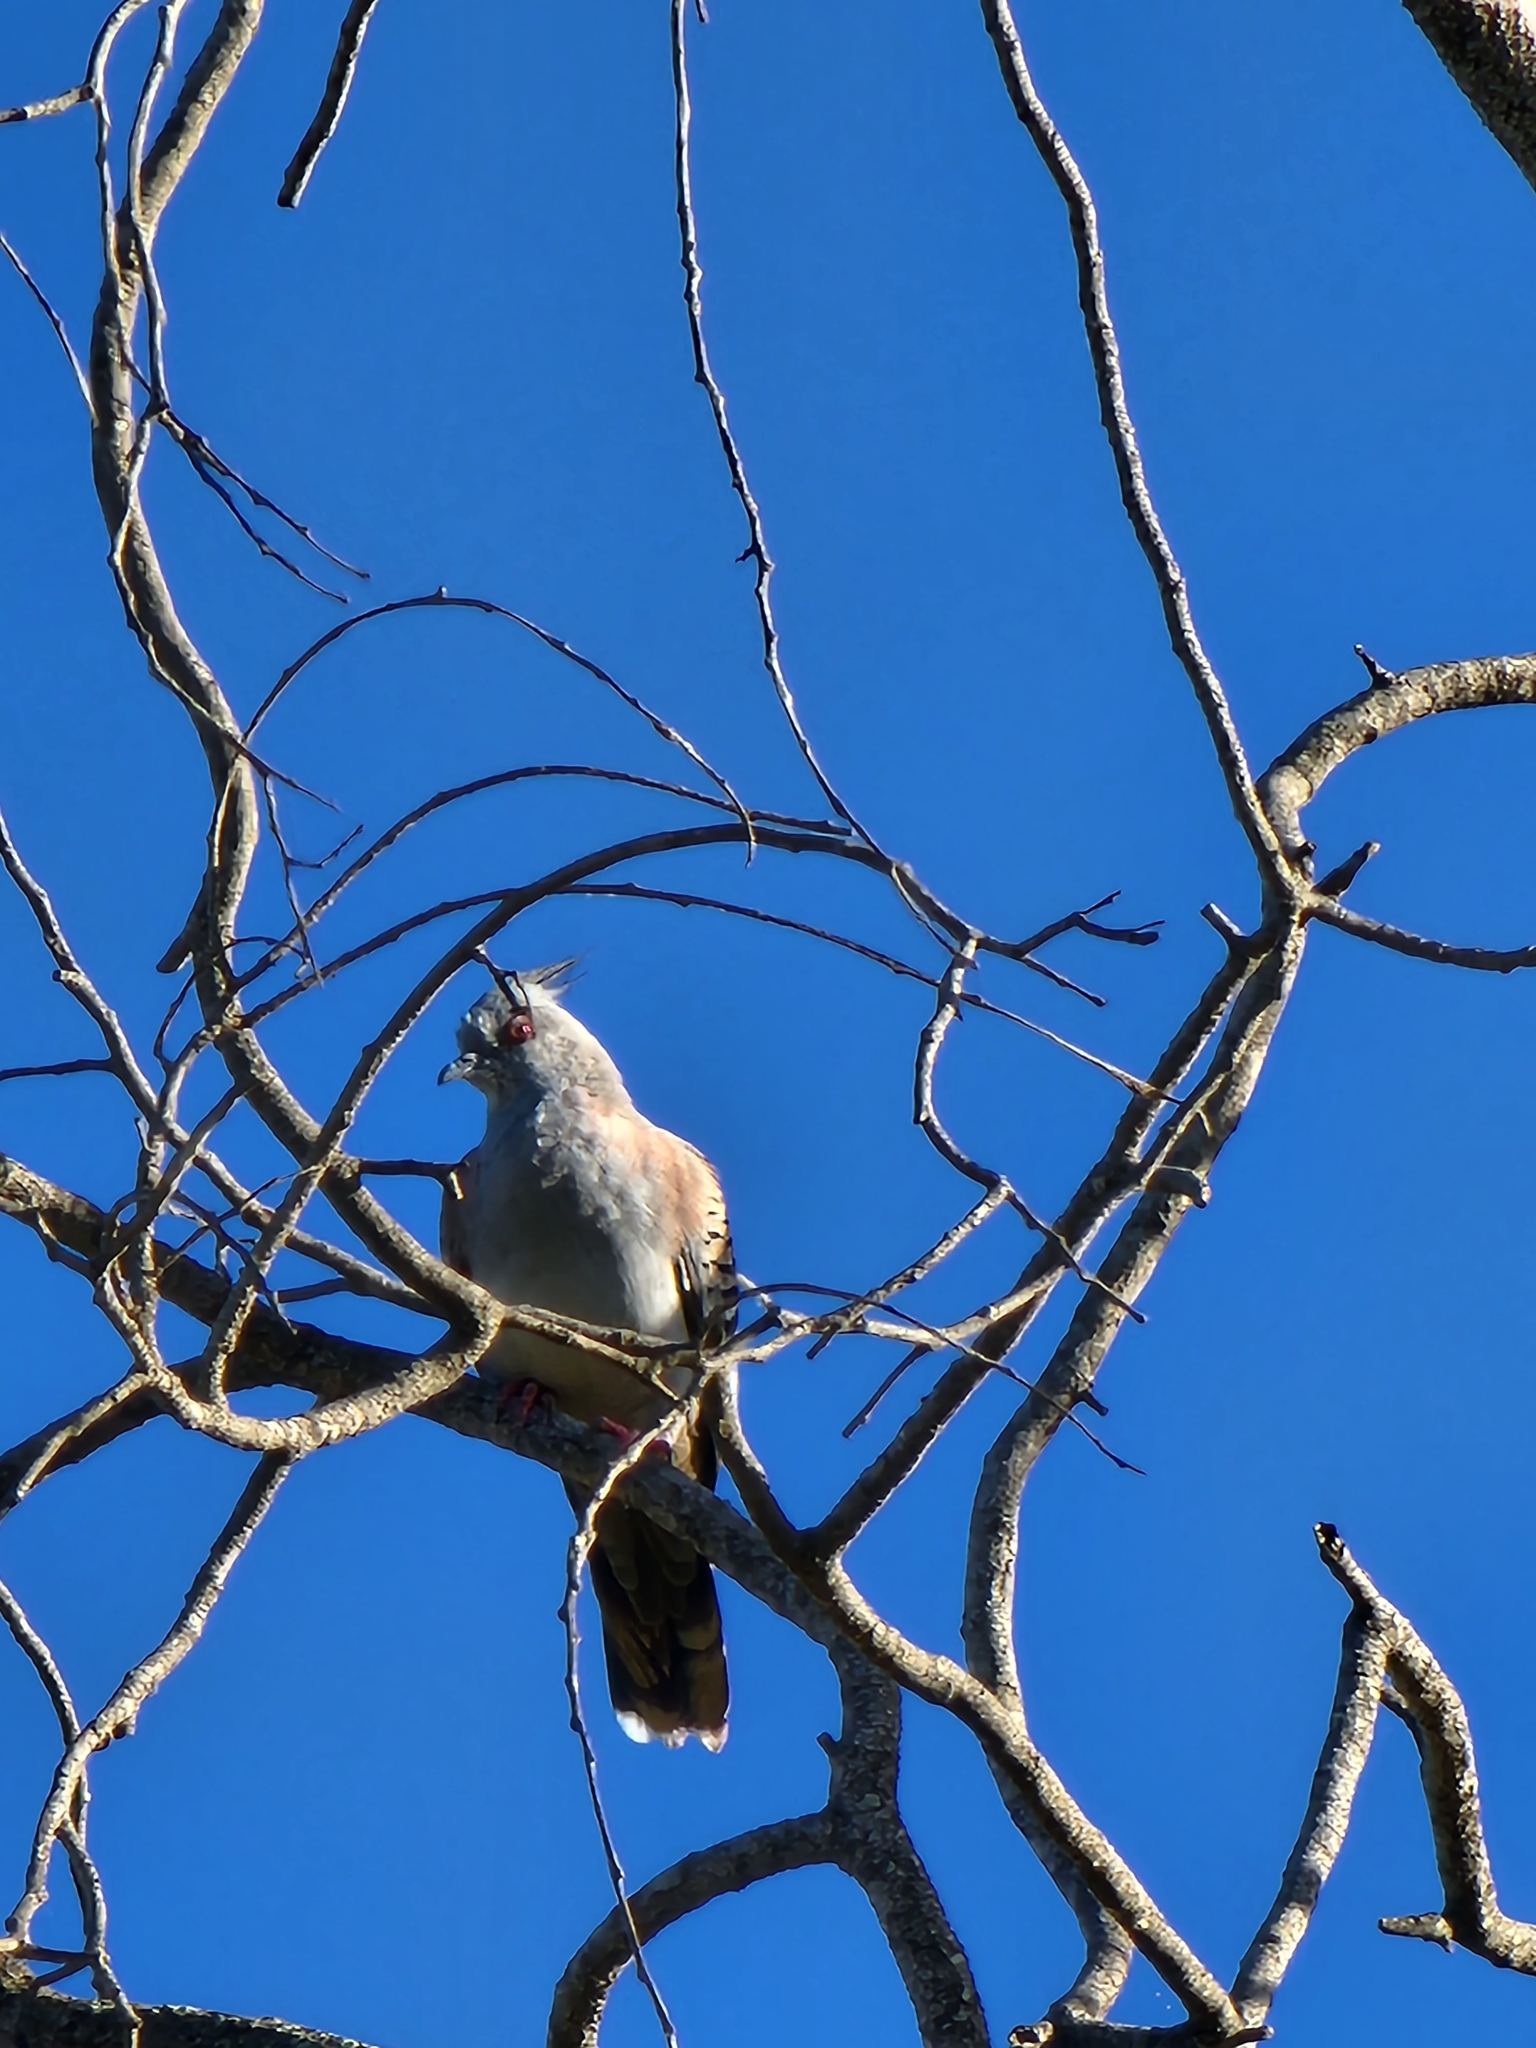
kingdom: Animalia
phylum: Chordata
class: Aves
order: Columbiformes
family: Columbidae
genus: Ocyphaps
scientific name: Ocyphaps lophotes
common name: Crested pigeon
